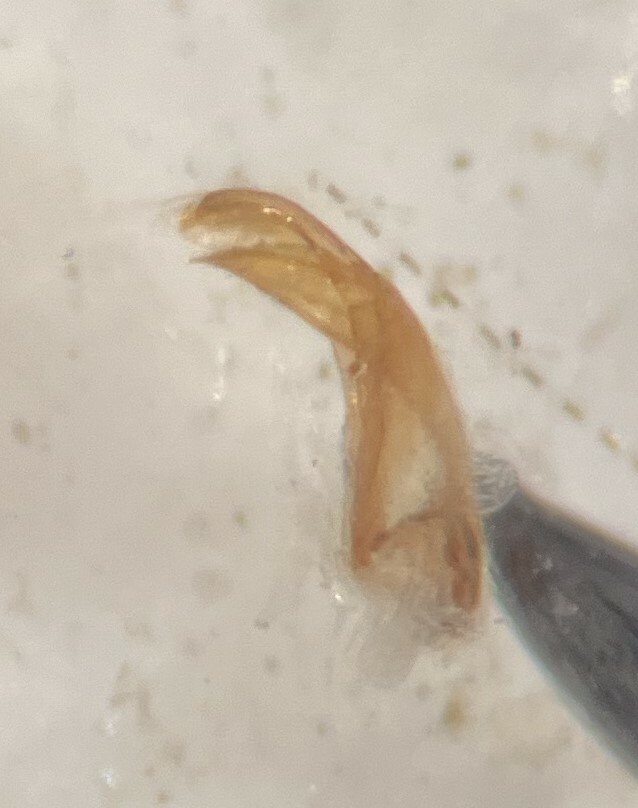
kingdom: Animalia
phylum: Arthropoda
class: Insecta
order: Coleoptera
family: Dytiscidae
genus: Neoclypeodytes
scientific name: Neoclypeodytes cinctellus
